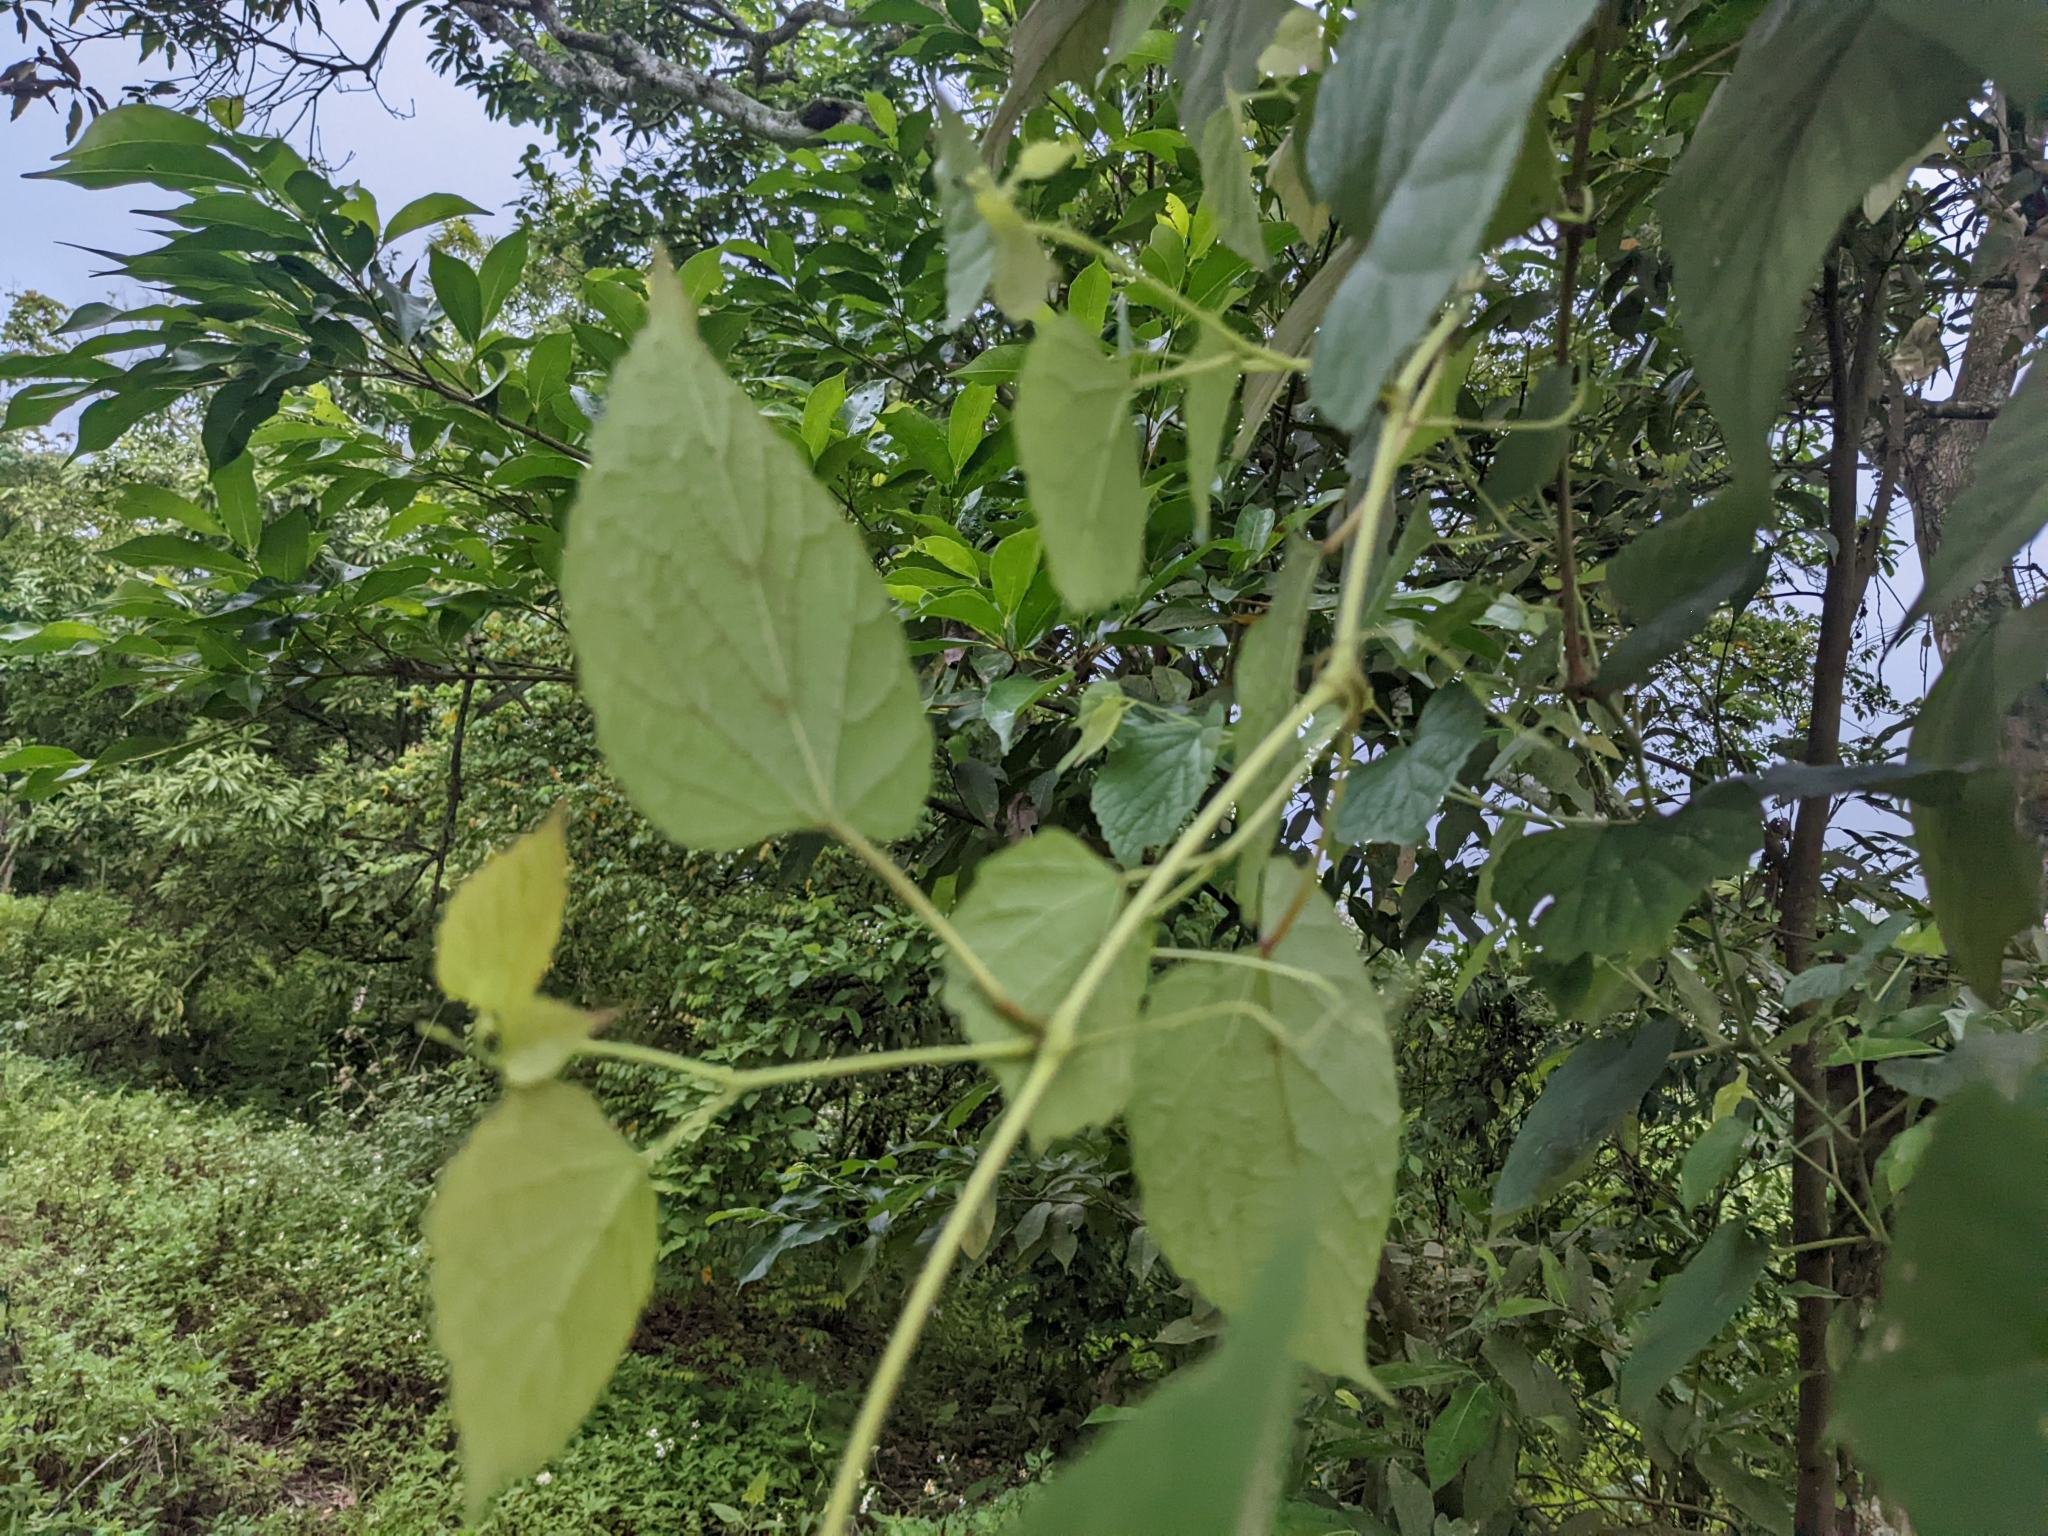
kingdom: Plantae
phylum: Tracheophyta
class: Magnoliopsida
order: Malpighiales
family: Euphorbiaceae
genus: Mallotus
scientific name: Mallotus paniculatus
